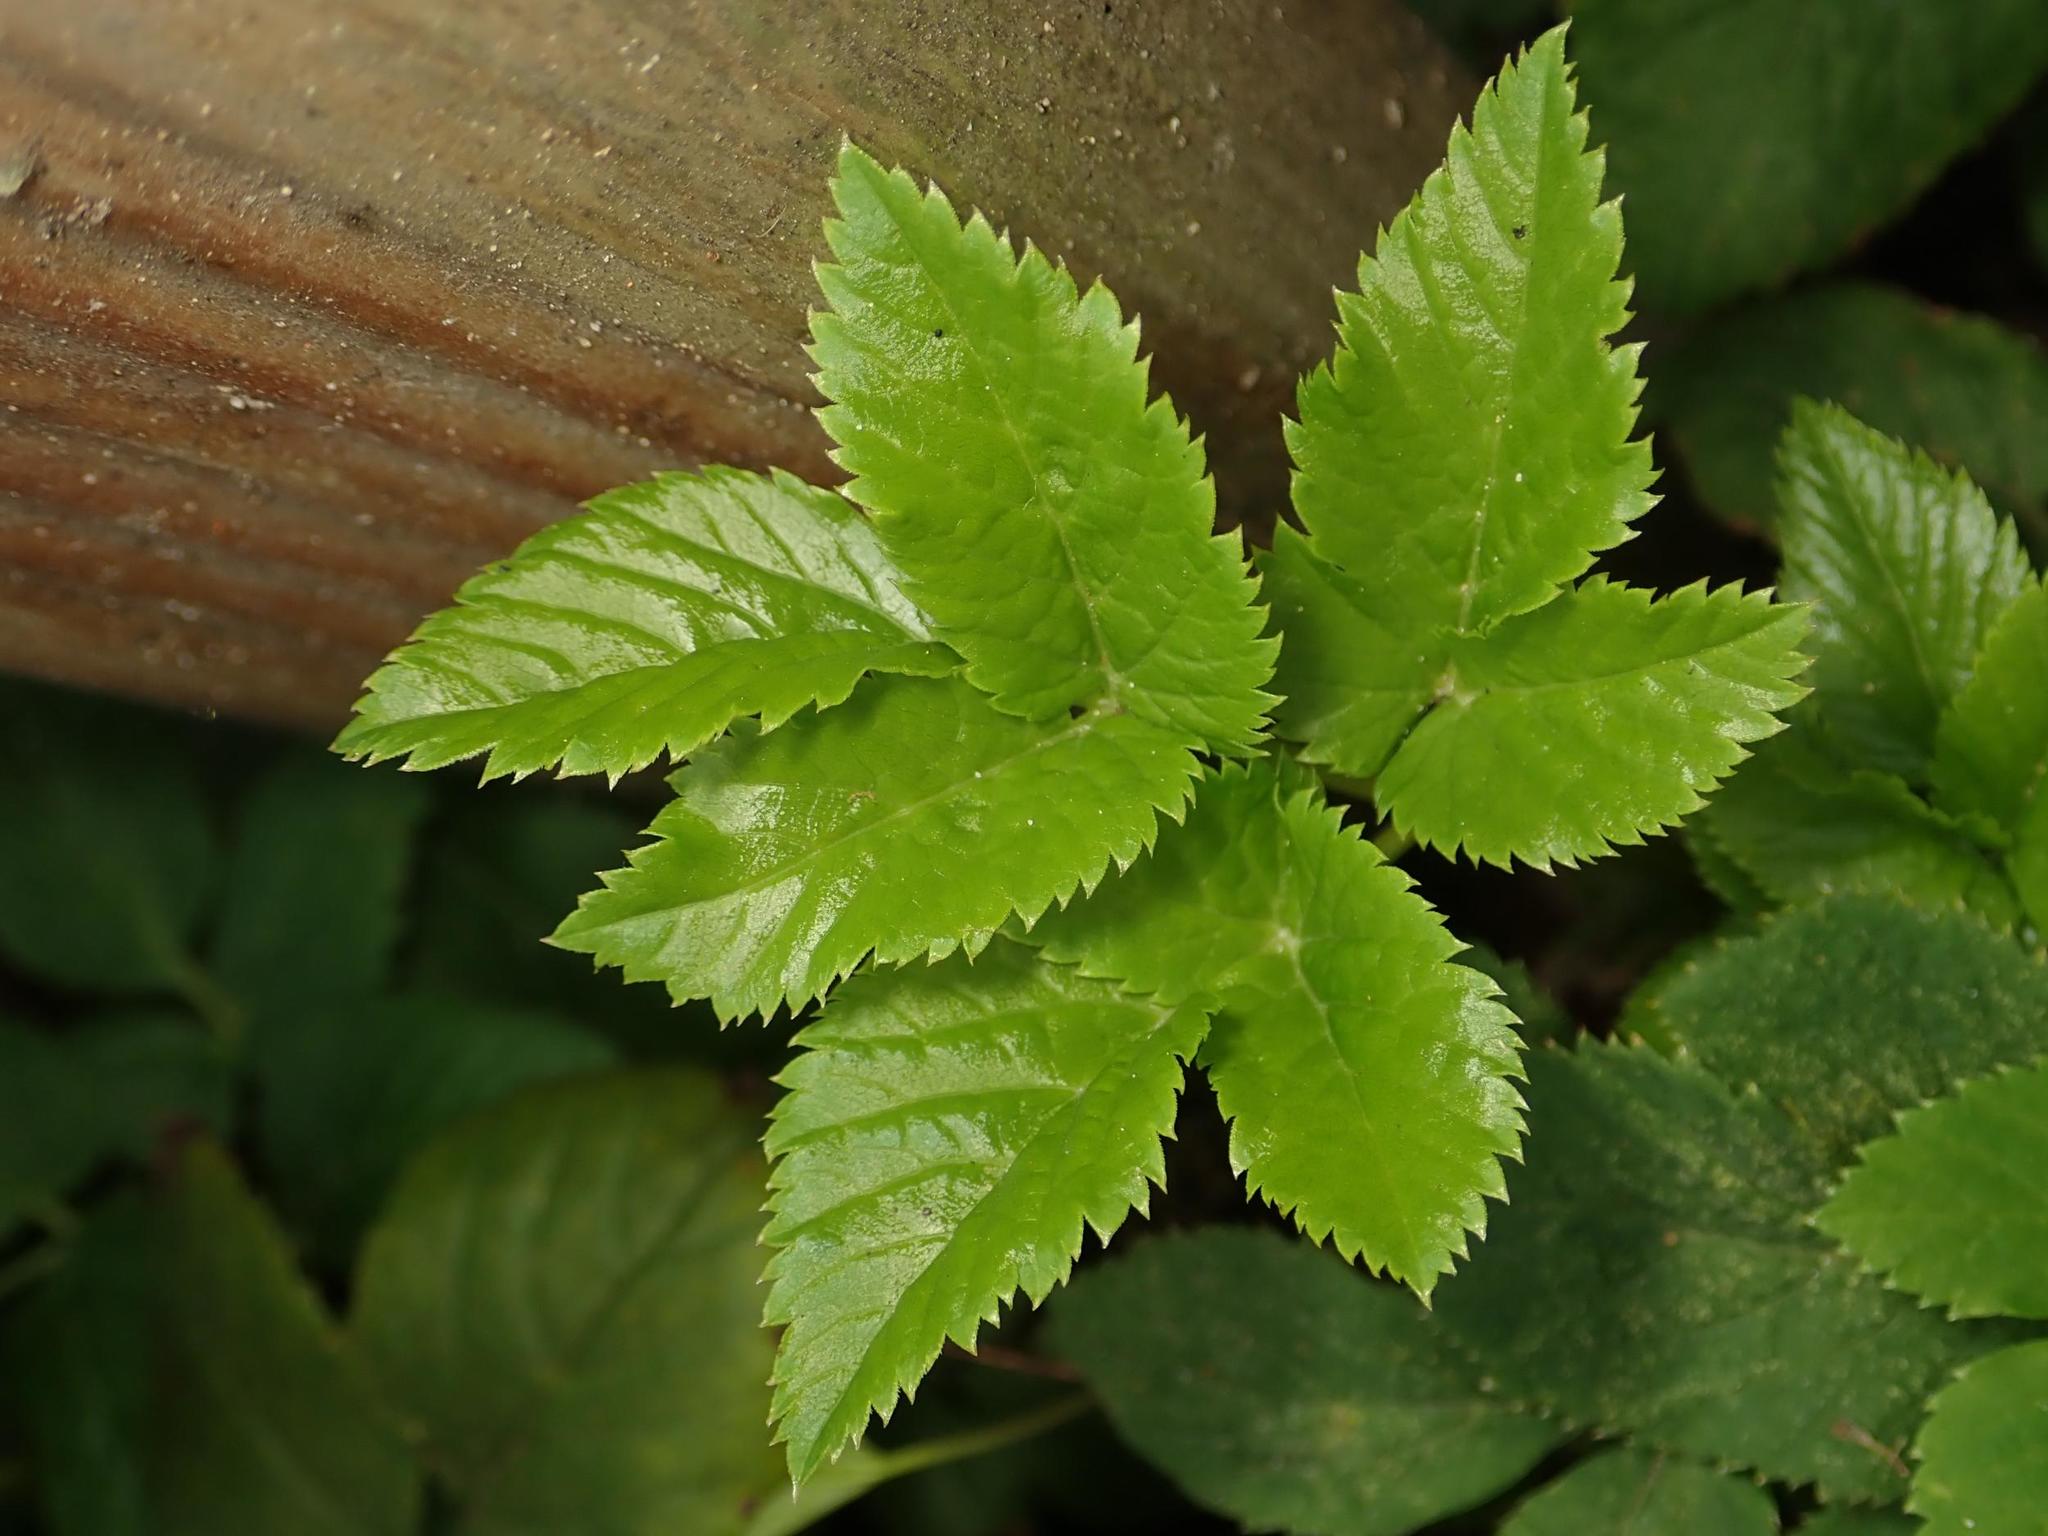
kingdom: Plantae
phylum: Tracheophyta
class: Magnoliopsida
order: Apiales
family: Apiaceae
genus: Aegopodium
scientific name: Aegopodium podagraria
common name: Ground-elder
